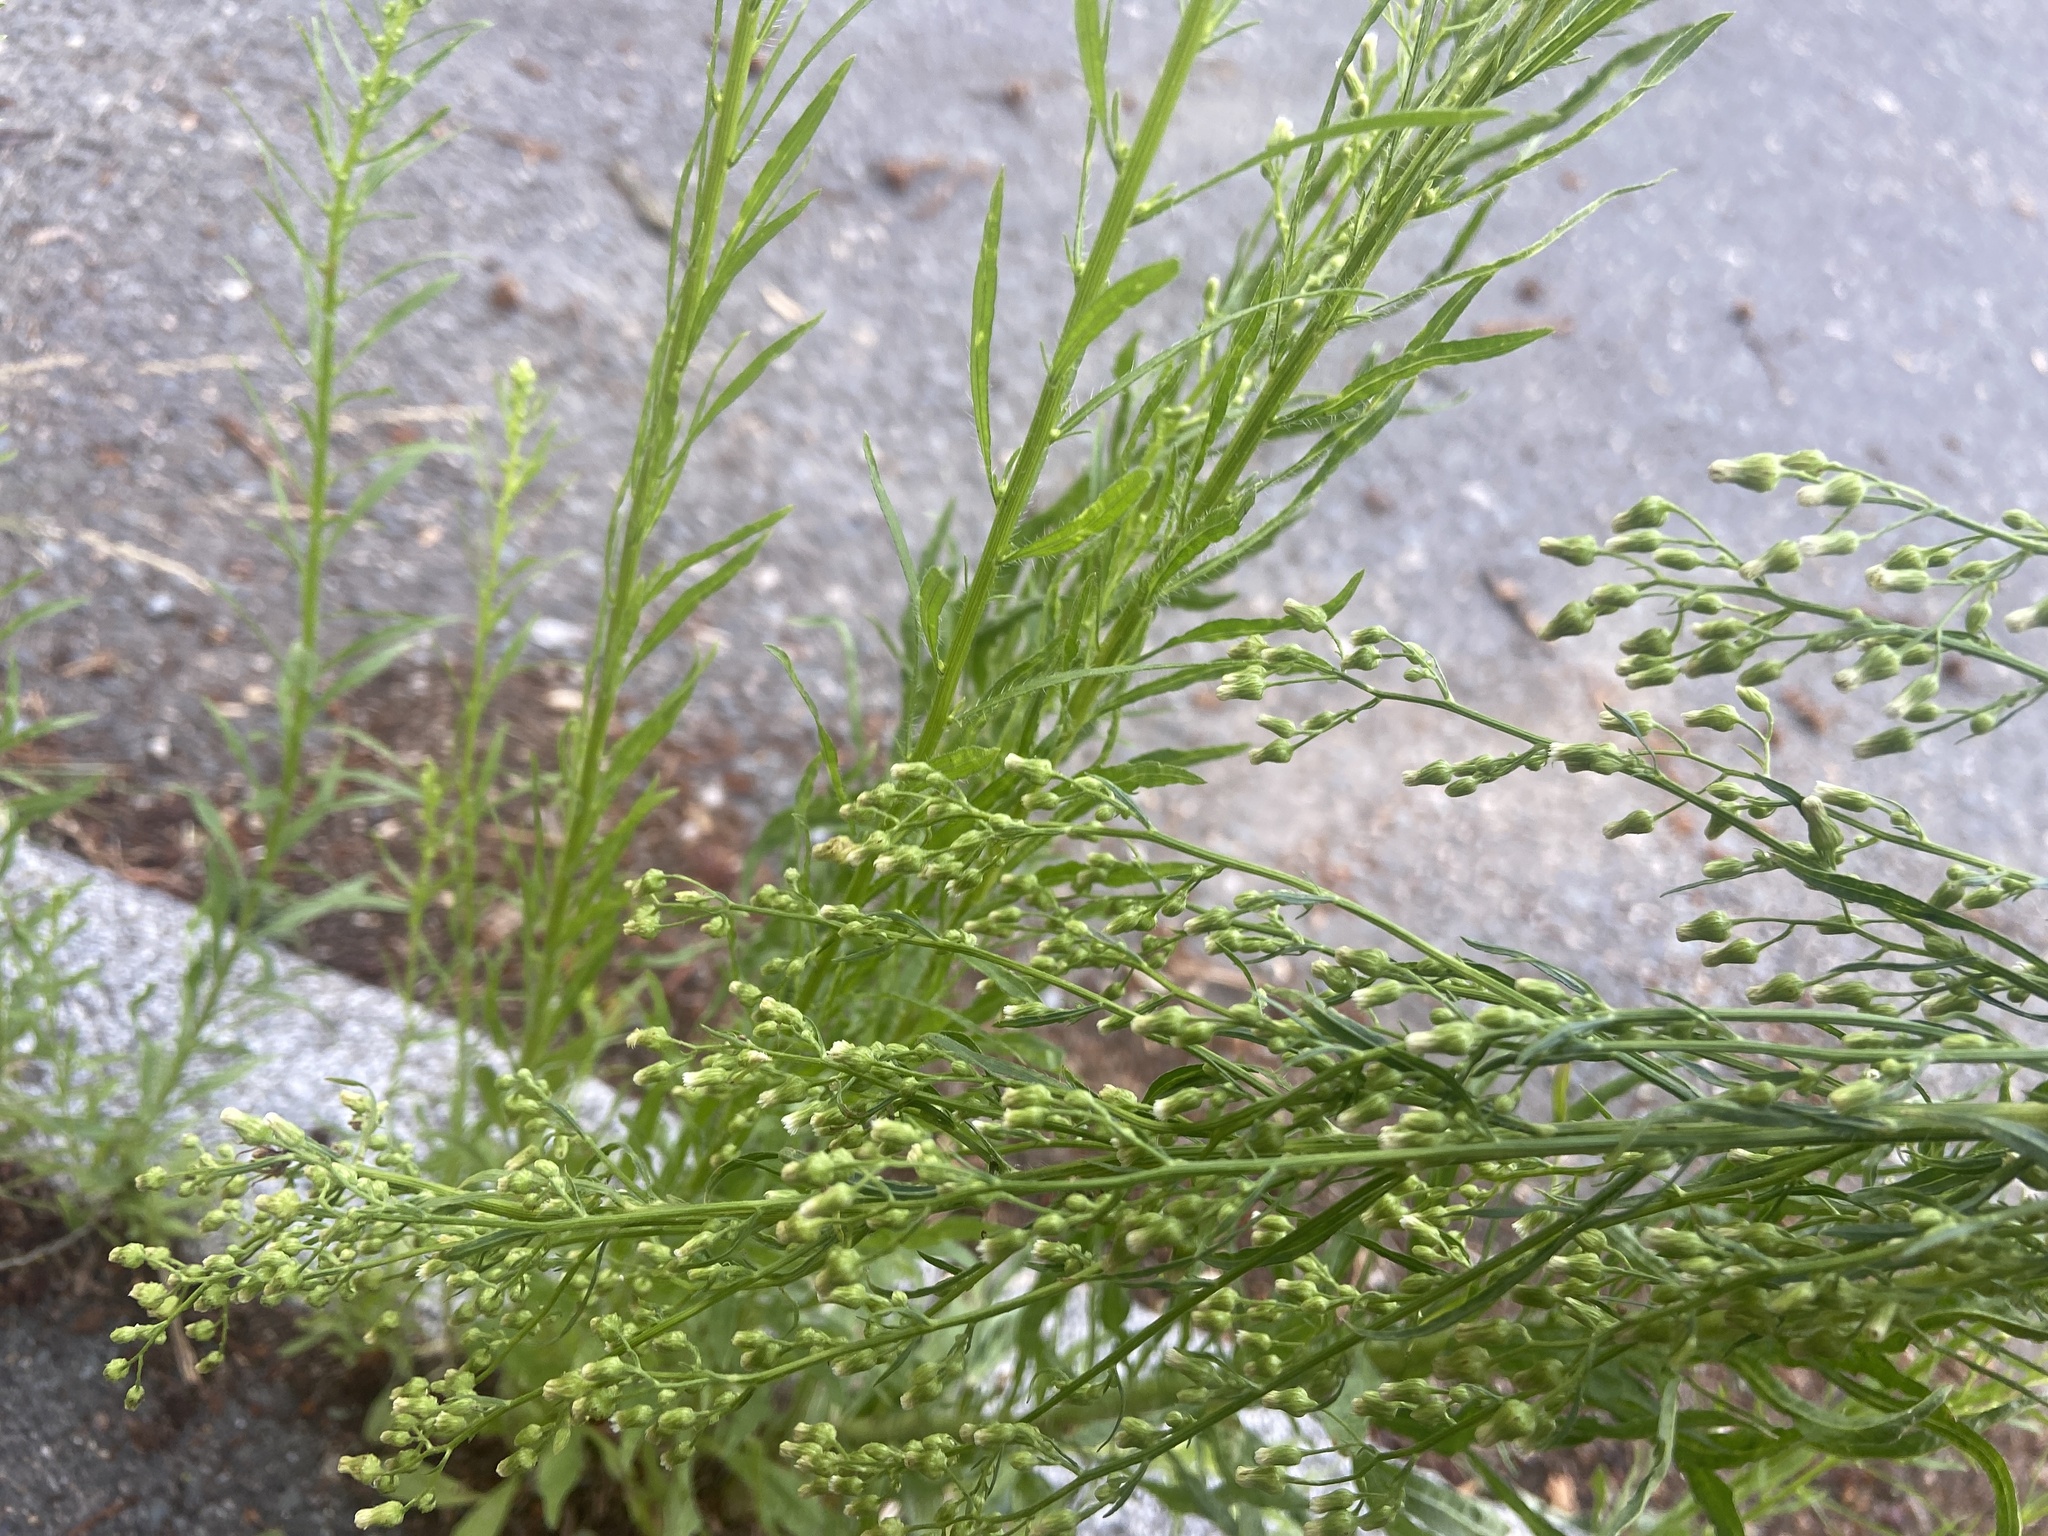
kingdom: Plantae
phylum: Tracheophyta
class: Magnoliopsida
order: Asterales
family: Asteraceae
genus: Erigeron
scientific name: Erigeron canadensis
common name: Canadian fleabane
